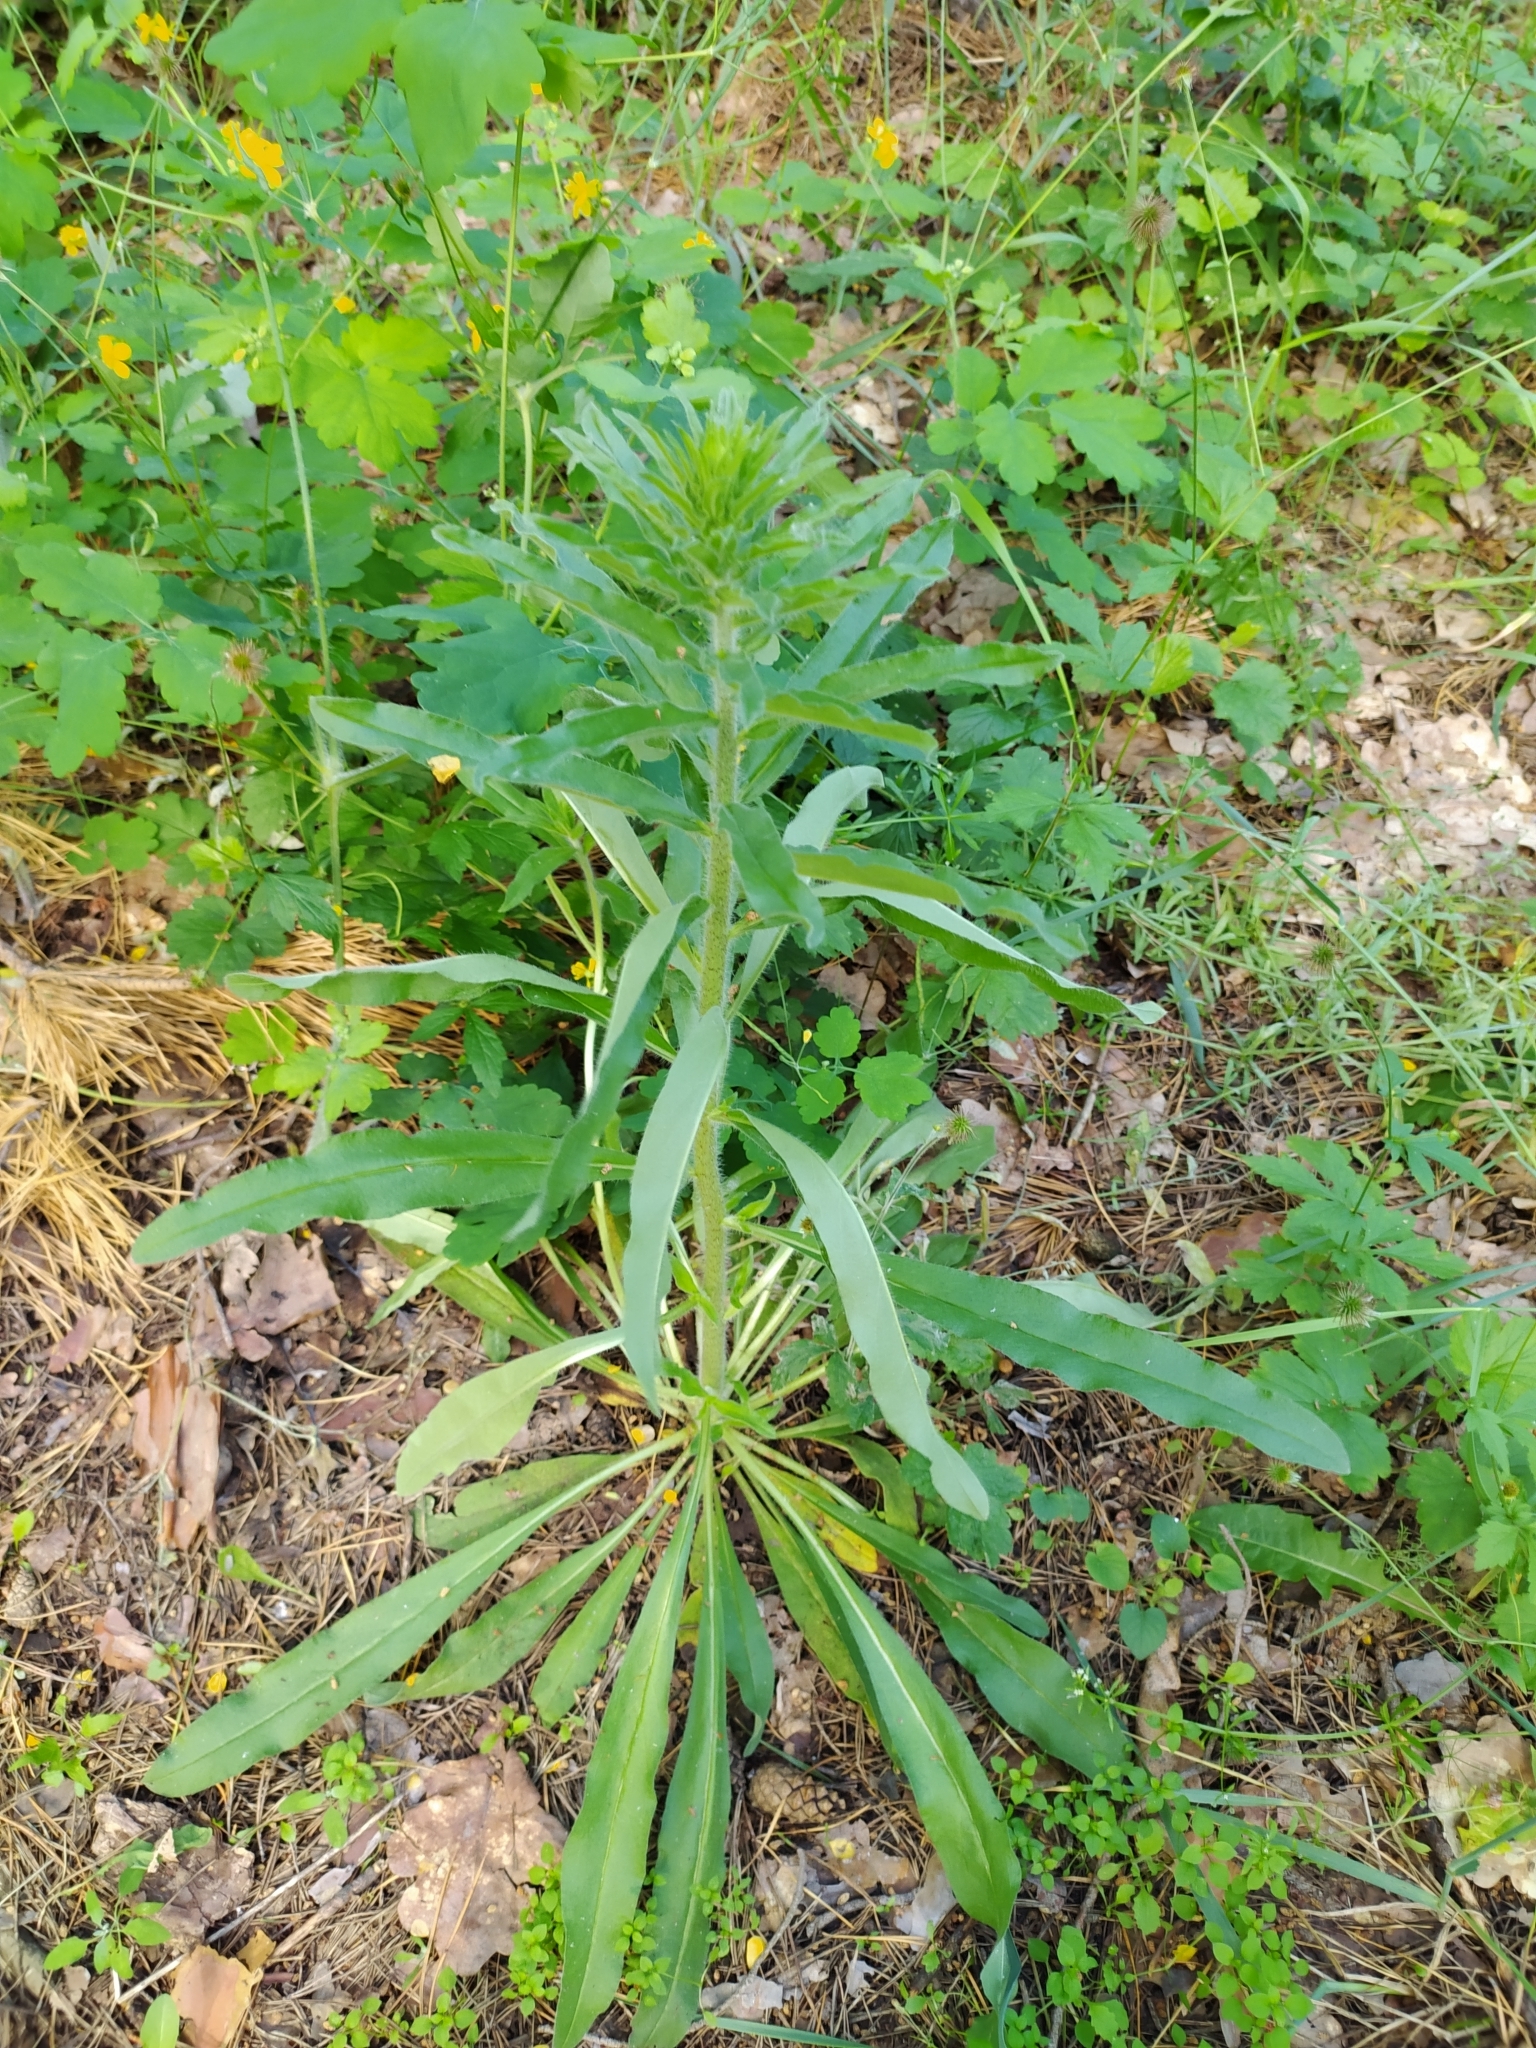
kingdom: Plantae
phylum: Tracheophyta
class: Magnoliopsida
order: Boraginales
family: Boraginaceae
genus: Echium
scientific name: Echium vulgare
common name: Common viper's bugloss
